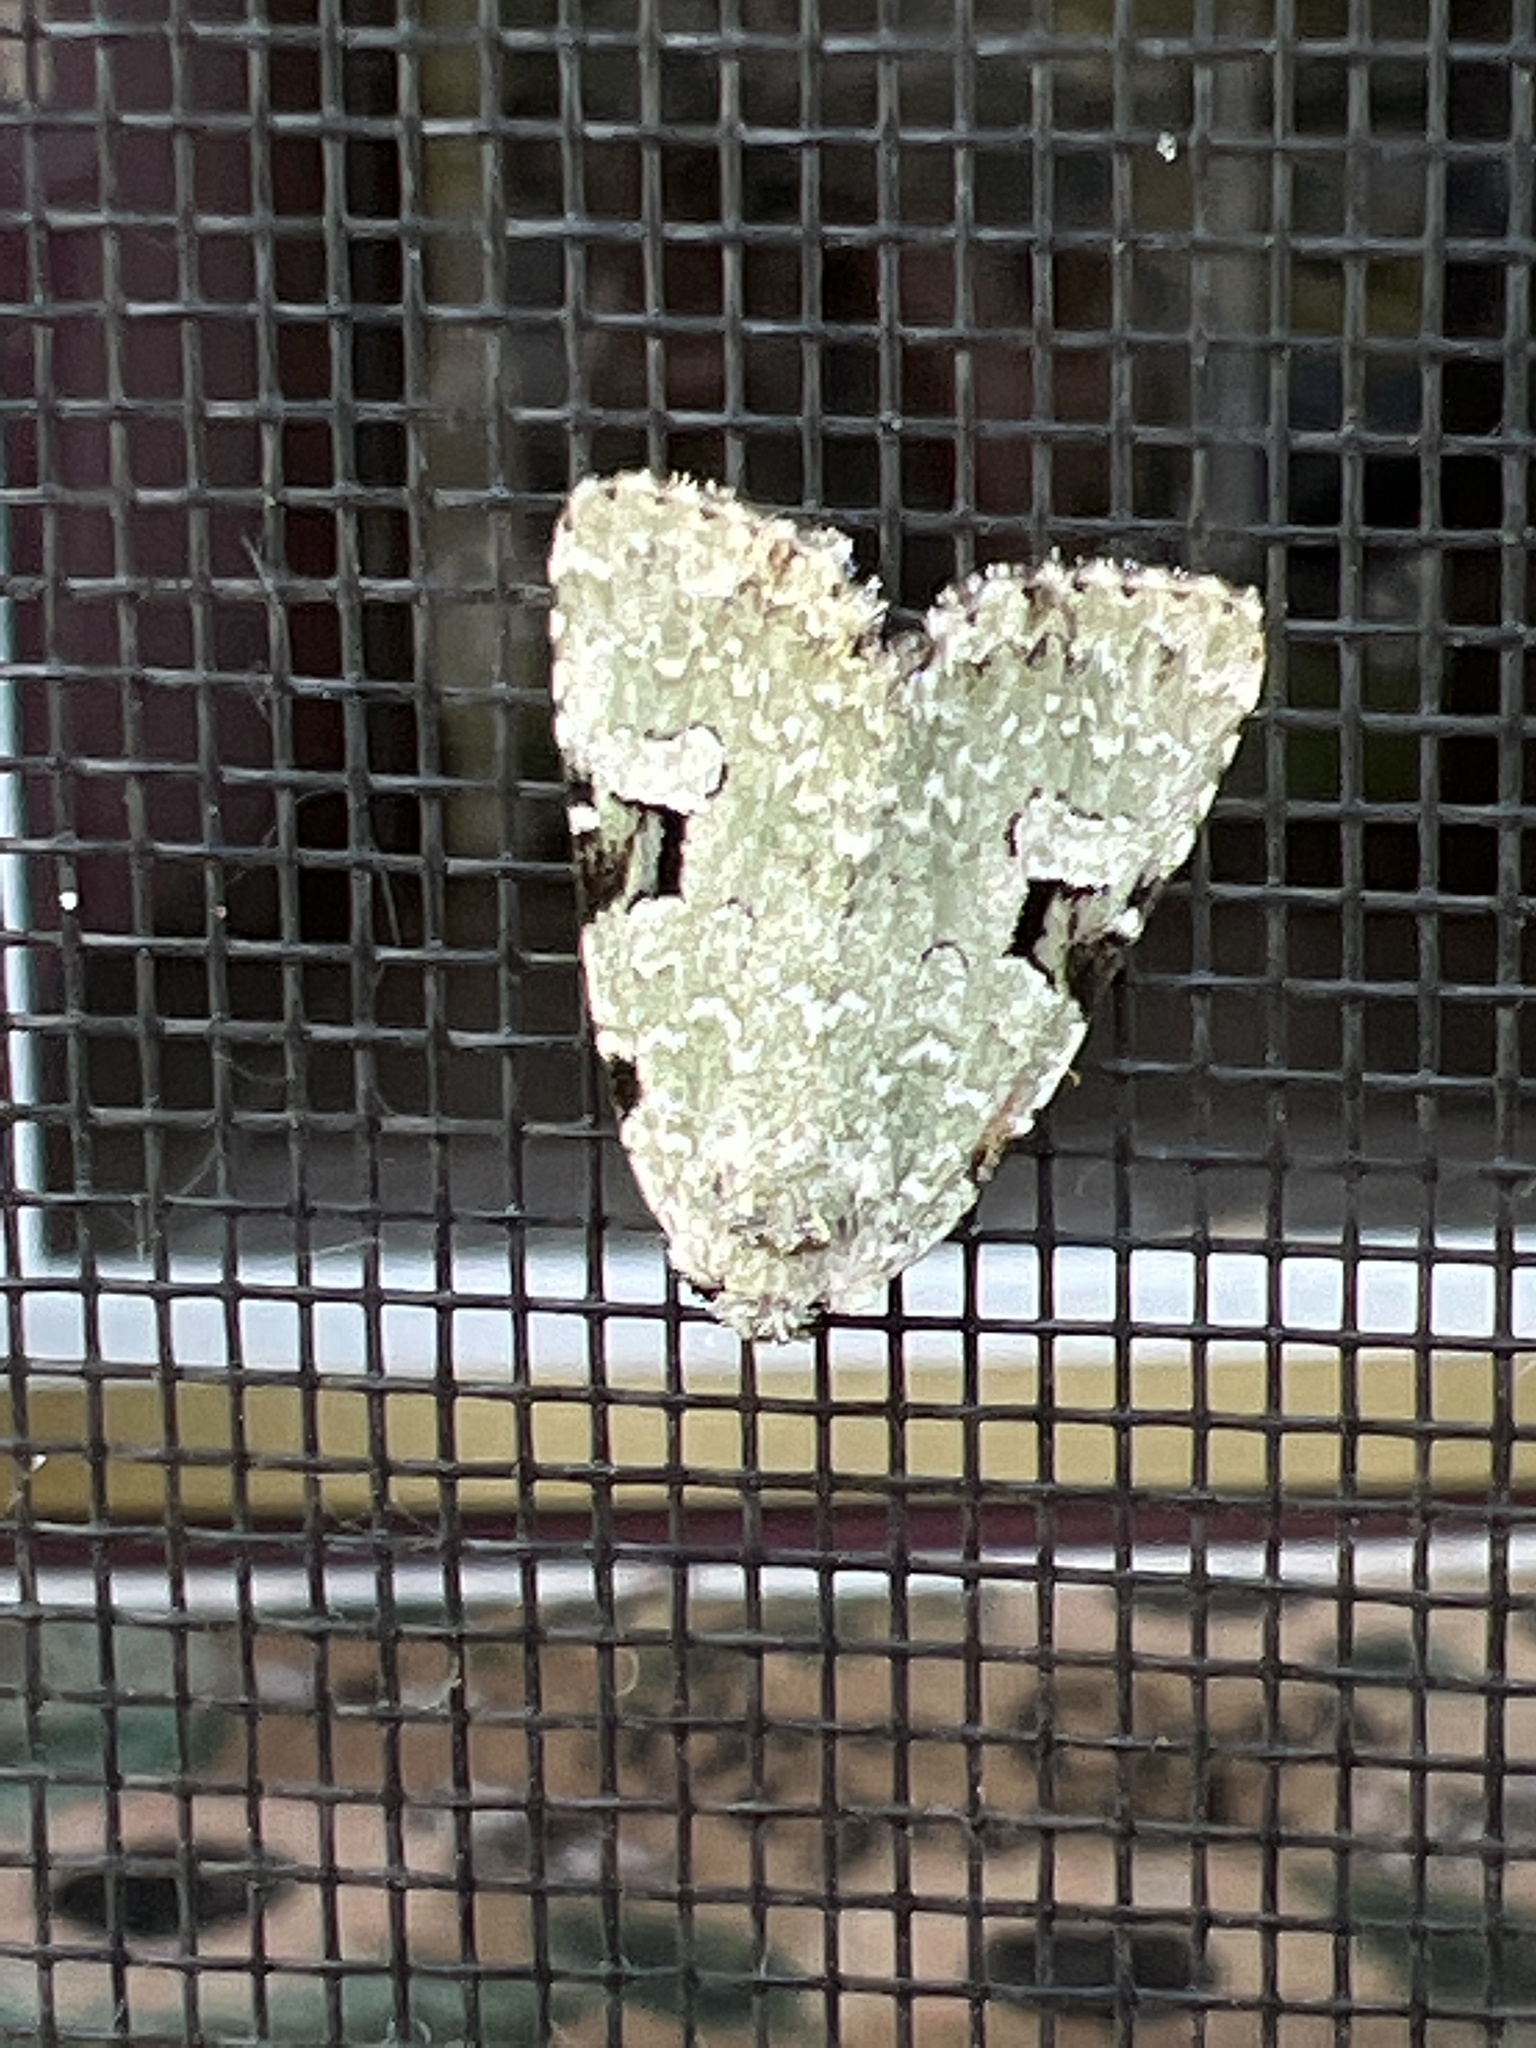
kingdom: Animalia
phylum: Arthropoda
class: Insecta
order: Lepidoptera
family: Noctuidae
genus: Leuconycta
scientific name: Leuconycta diphteroides
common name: Green leuconycta moth
